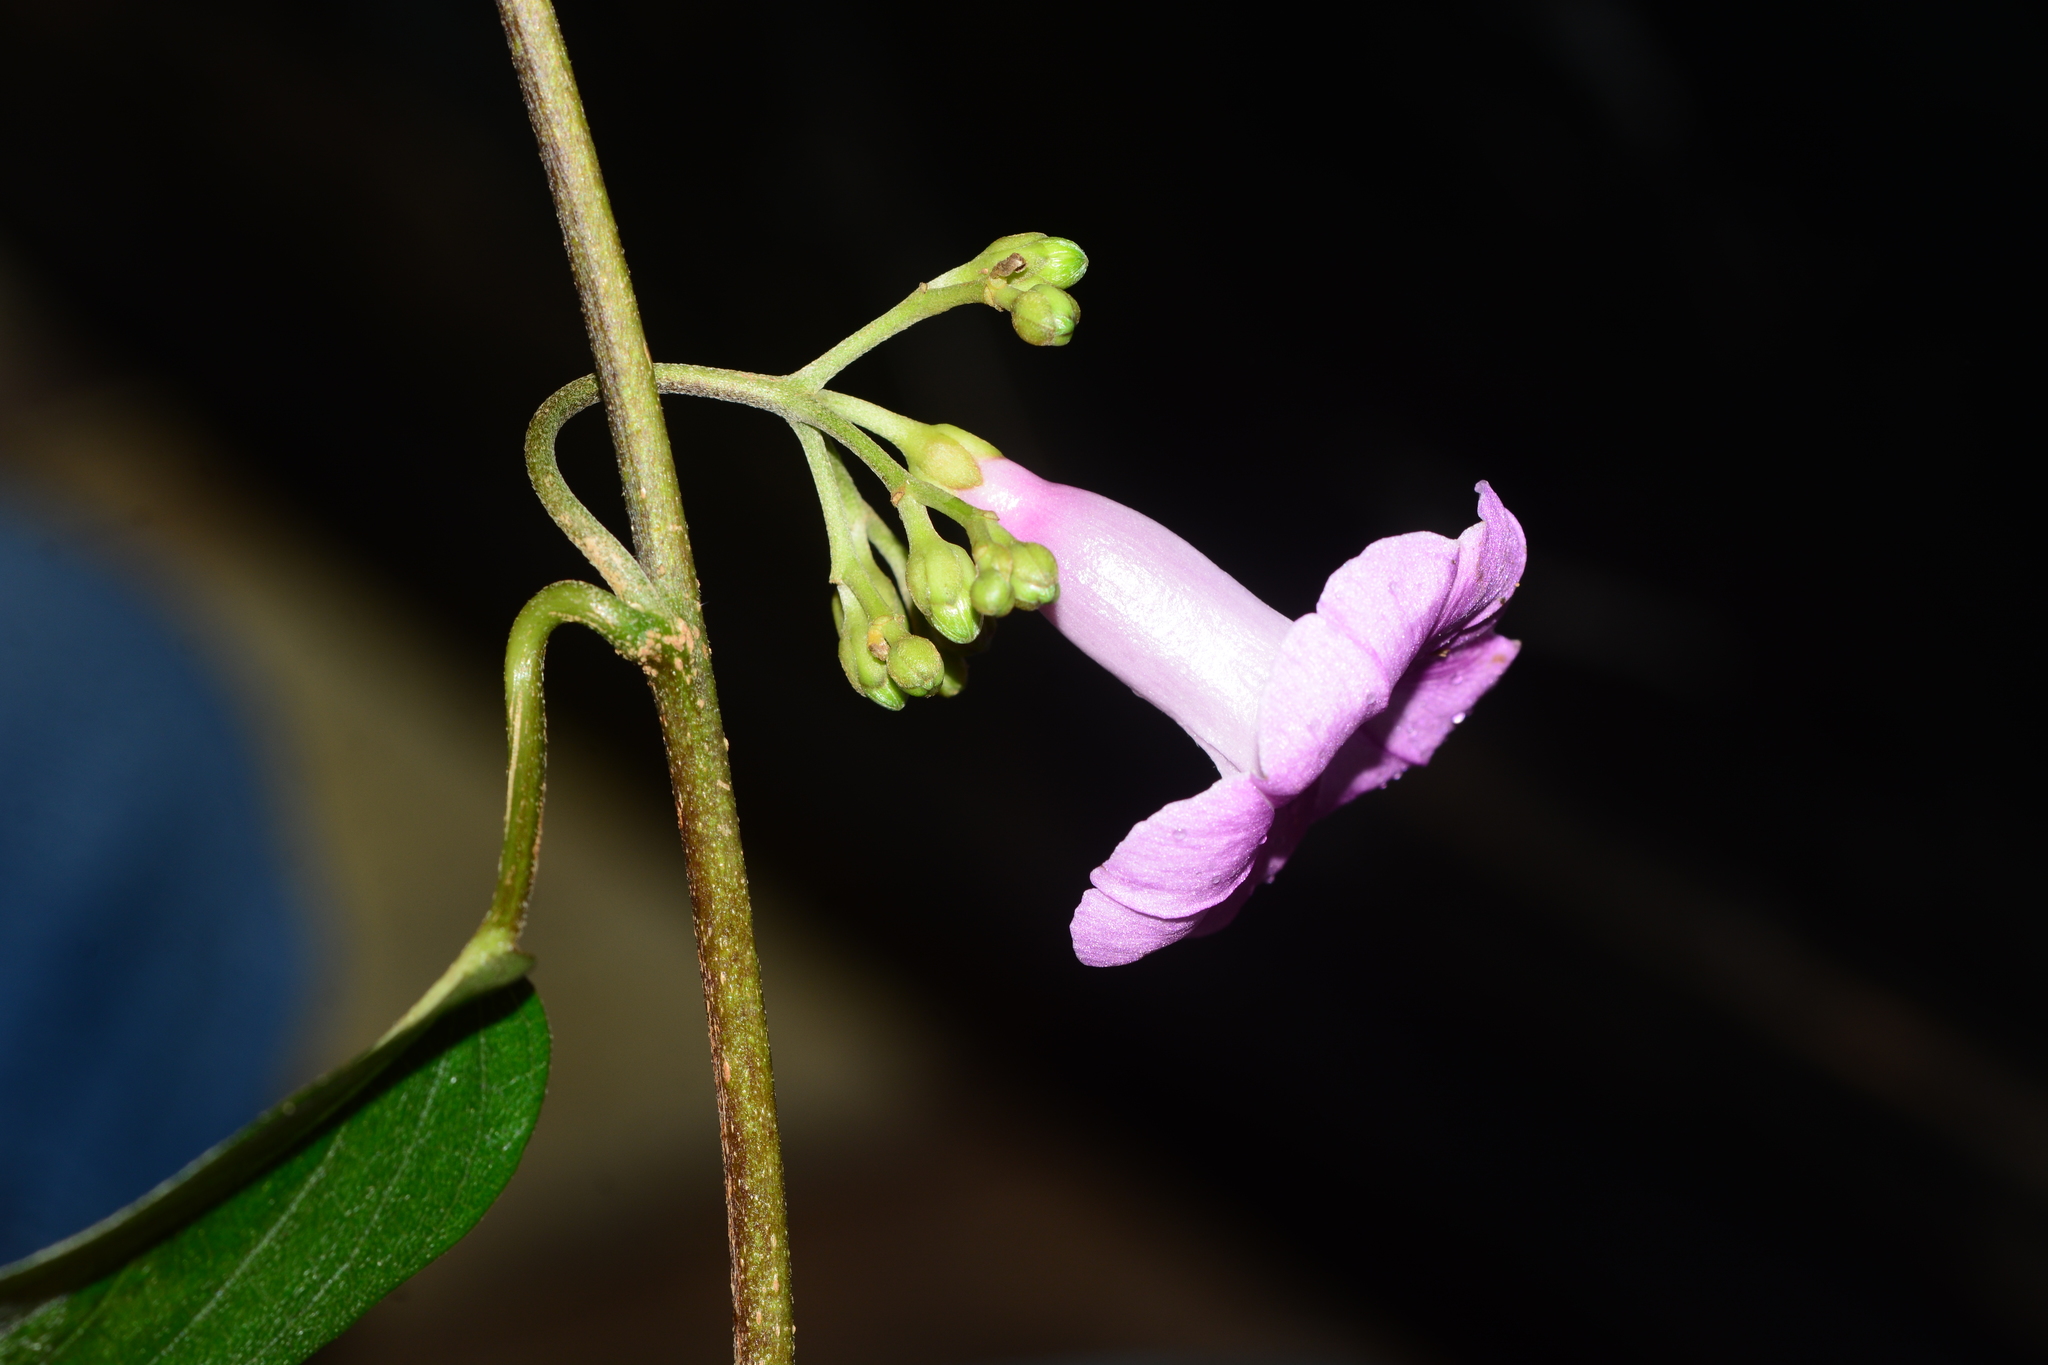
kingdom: Plantae
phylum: Tracheophyta
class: Magnoliopsida
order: Solanales
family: Convolvulaceae
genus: Argyreia
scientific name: Argyreia elliptica
